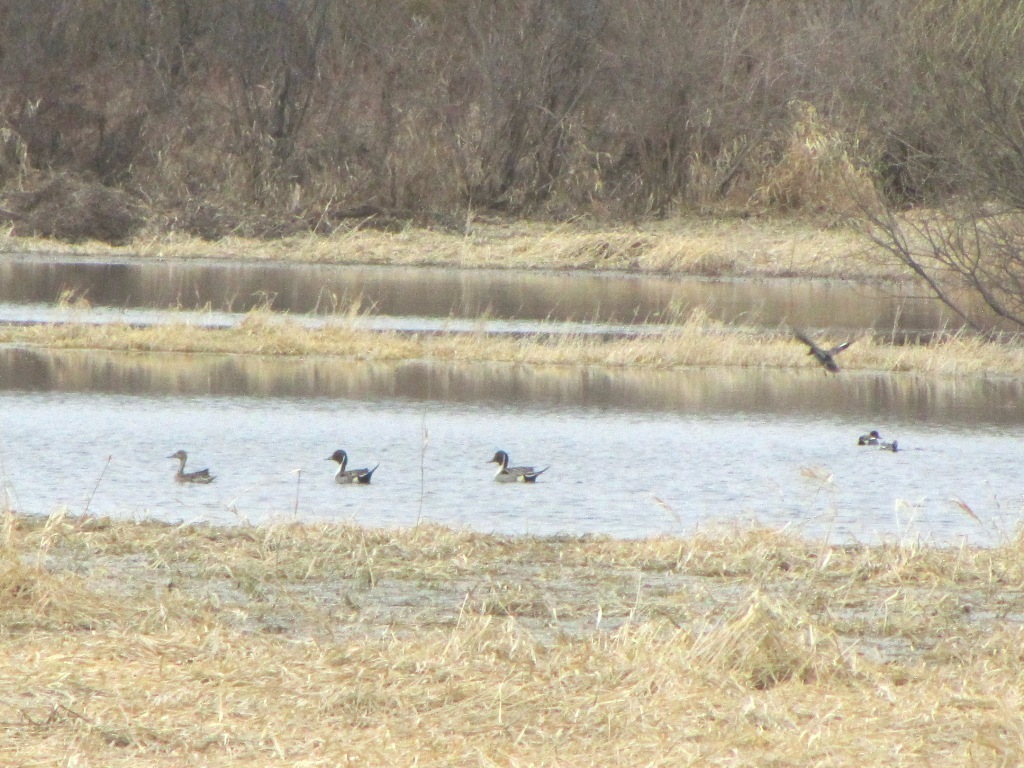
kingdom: Animalia
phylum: Chordata
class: Aves
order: Anseriformes
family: Anatidae
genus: Anas
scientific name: Anas acuta
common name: Northern pintail
